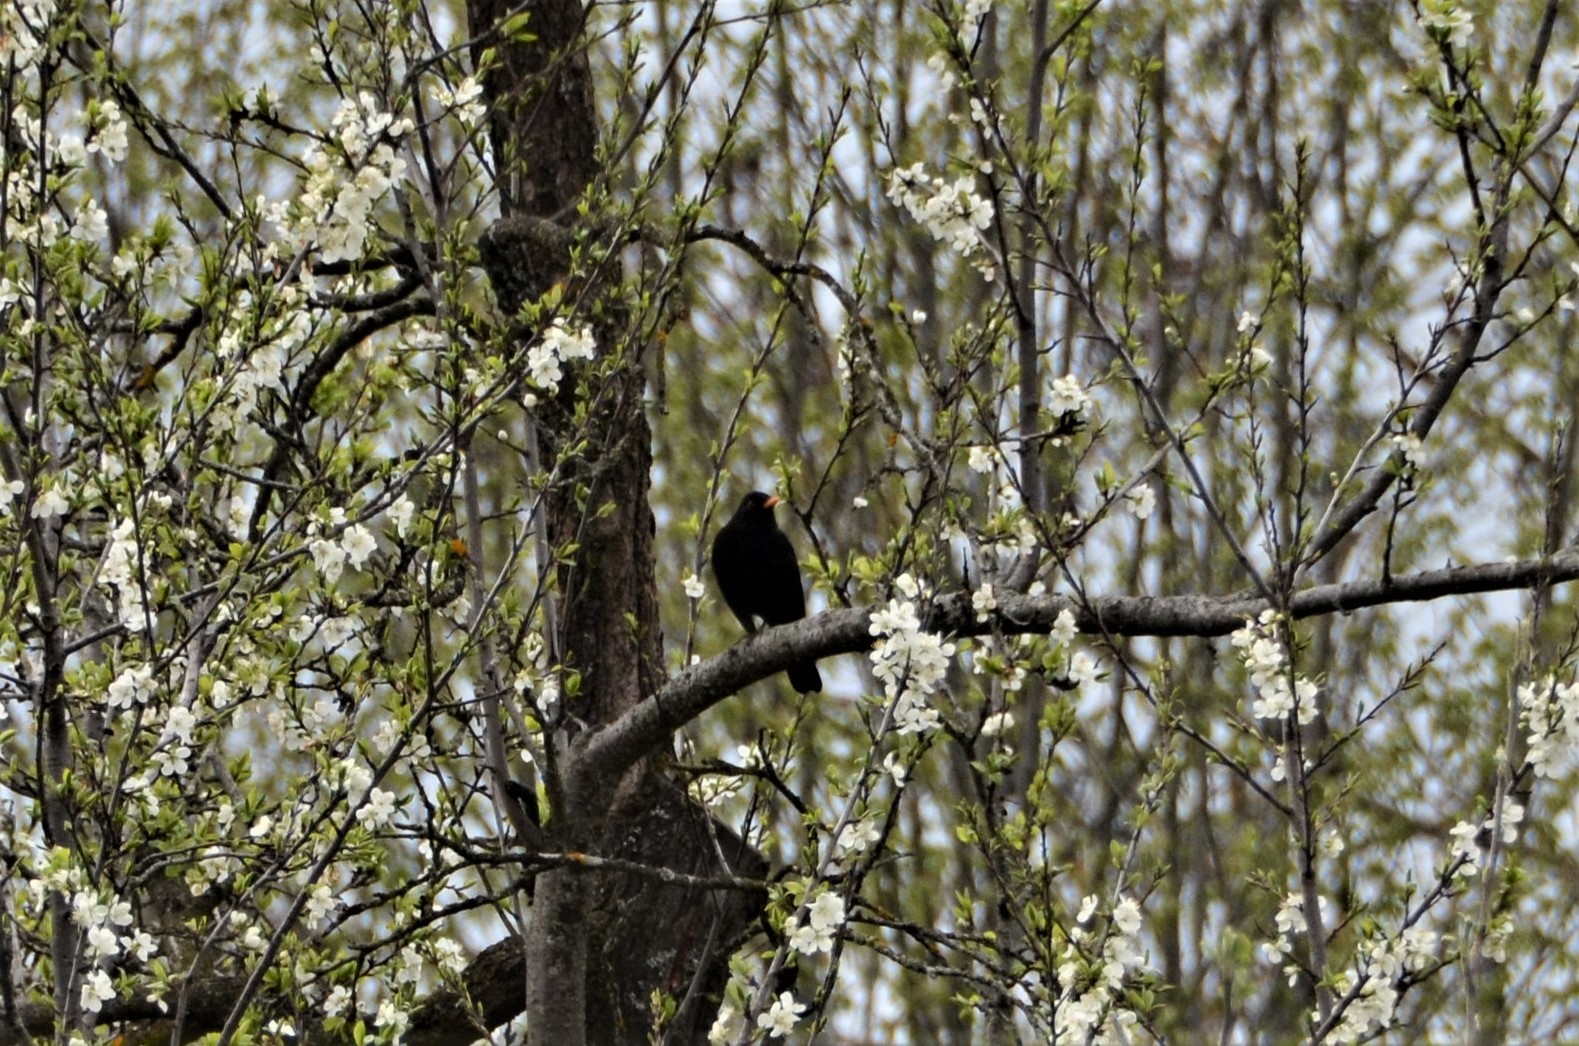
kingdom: Animalia
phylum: Chordata
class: Aves
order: Passeriformes
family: Turdidae
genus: Turdus
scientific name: Turdus merula
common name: Common blackbird
